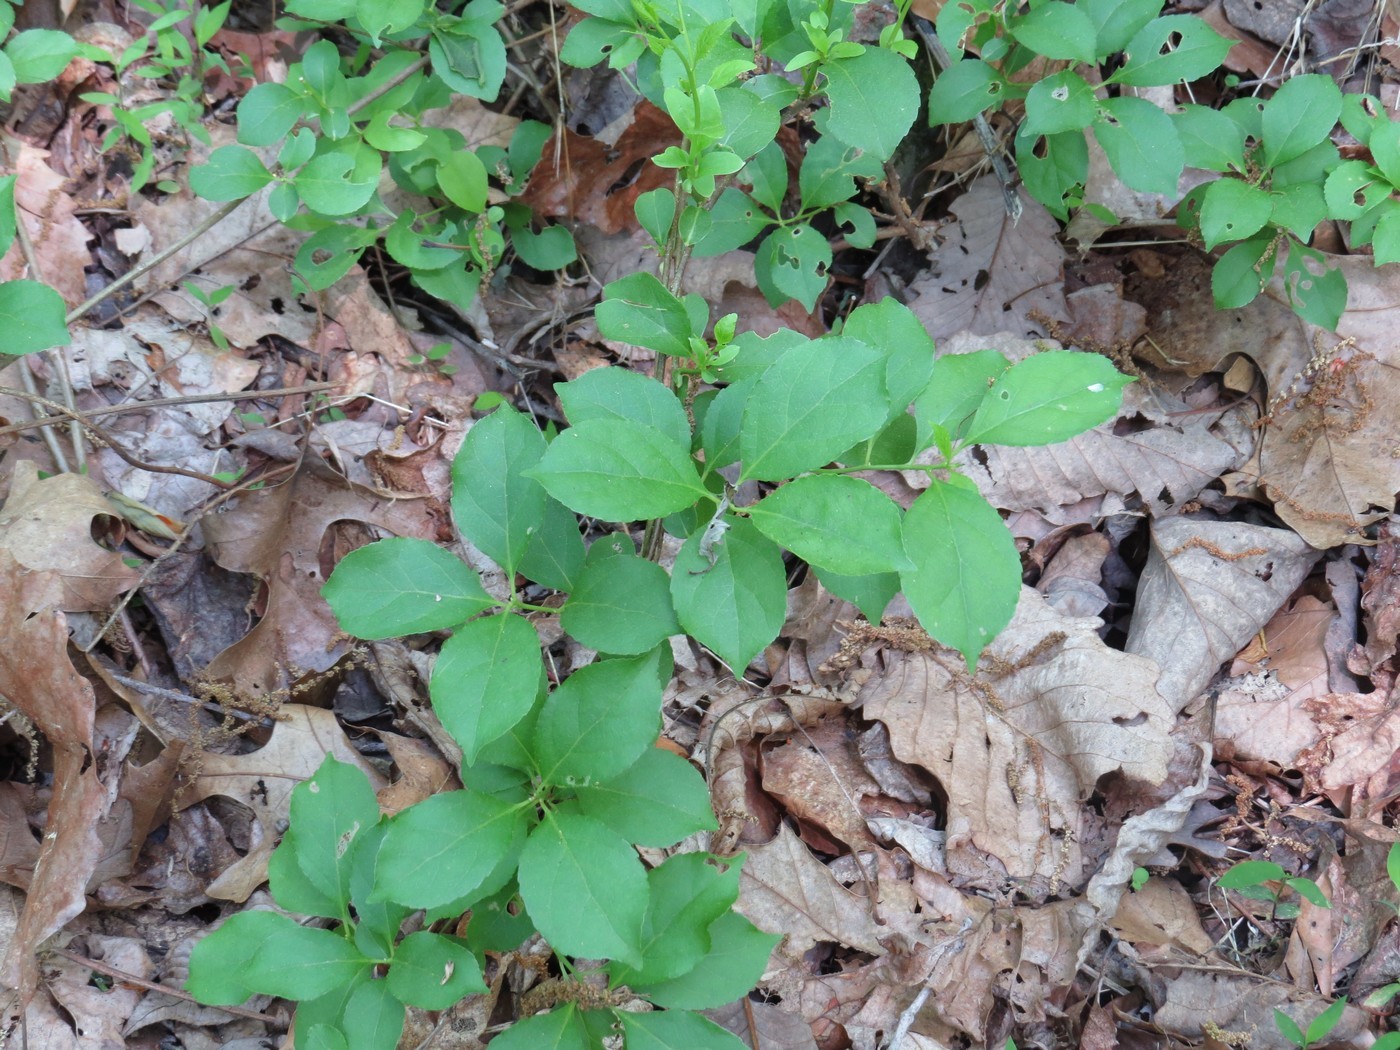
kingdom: Plantae
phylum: Tracheophyta
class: Magnoliopsida
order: Celastrales
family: Celastraceae
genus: Celastrus
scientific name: Celastrus orbiculatus
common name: Oriental bittersweet
